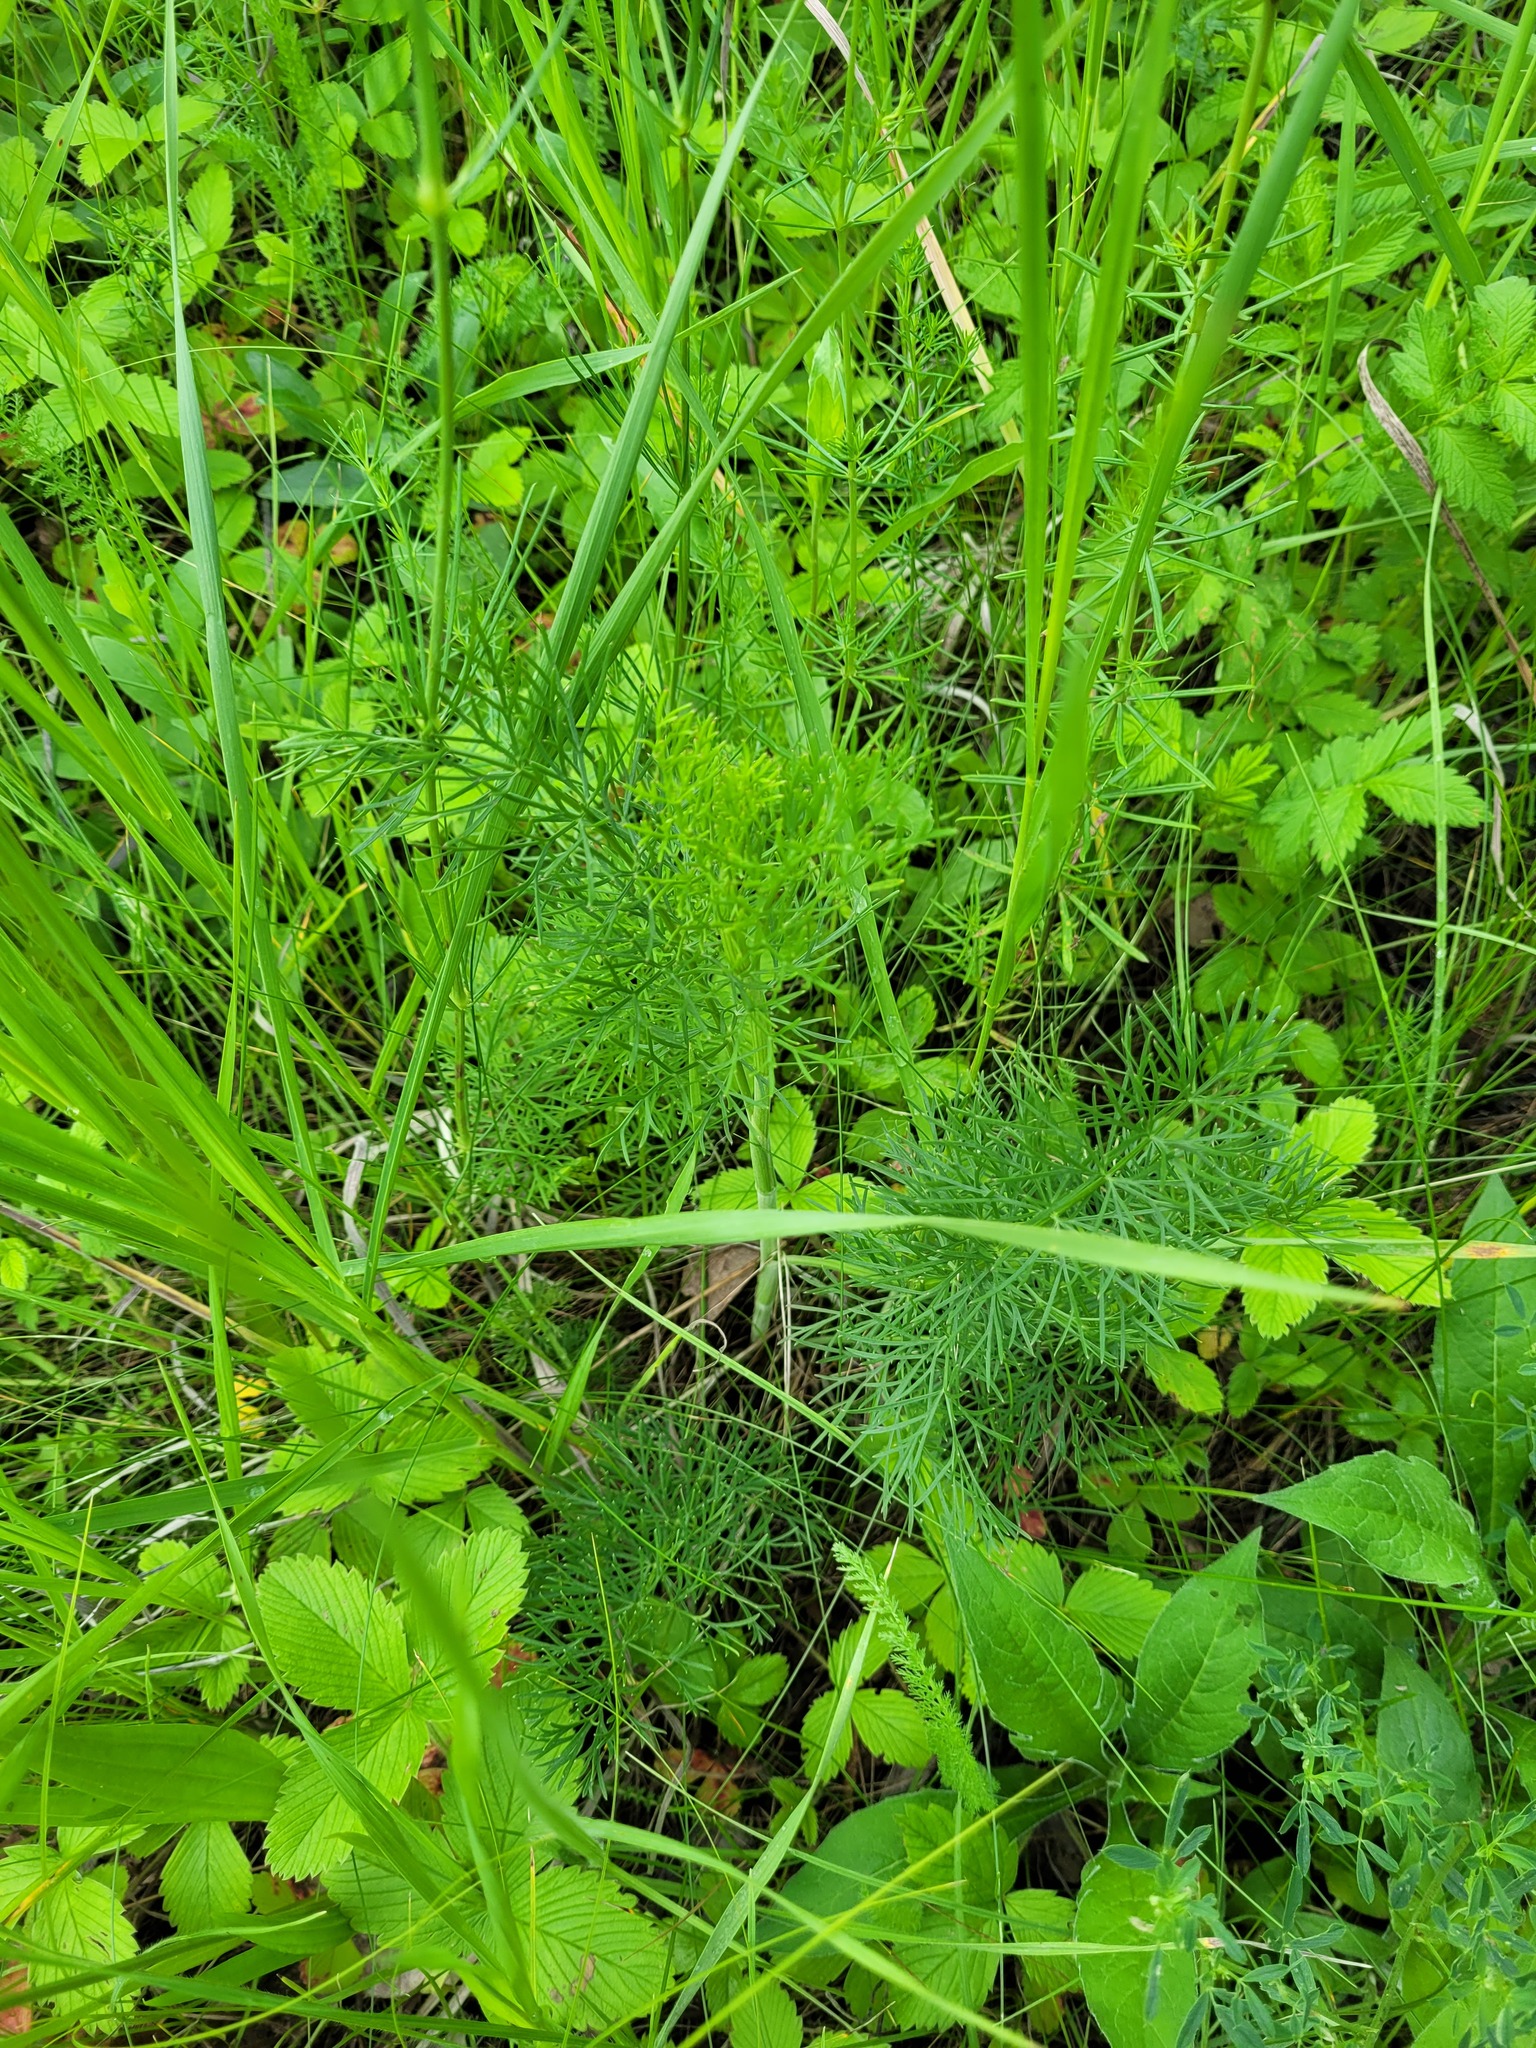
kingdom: Plantae
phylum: Tracheophyta
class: Magnoliopsida
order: Ranunculales
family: Ranunculaceae
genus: Adonis
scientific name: Adonis vernalis
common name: Yellow pheasants-eye
